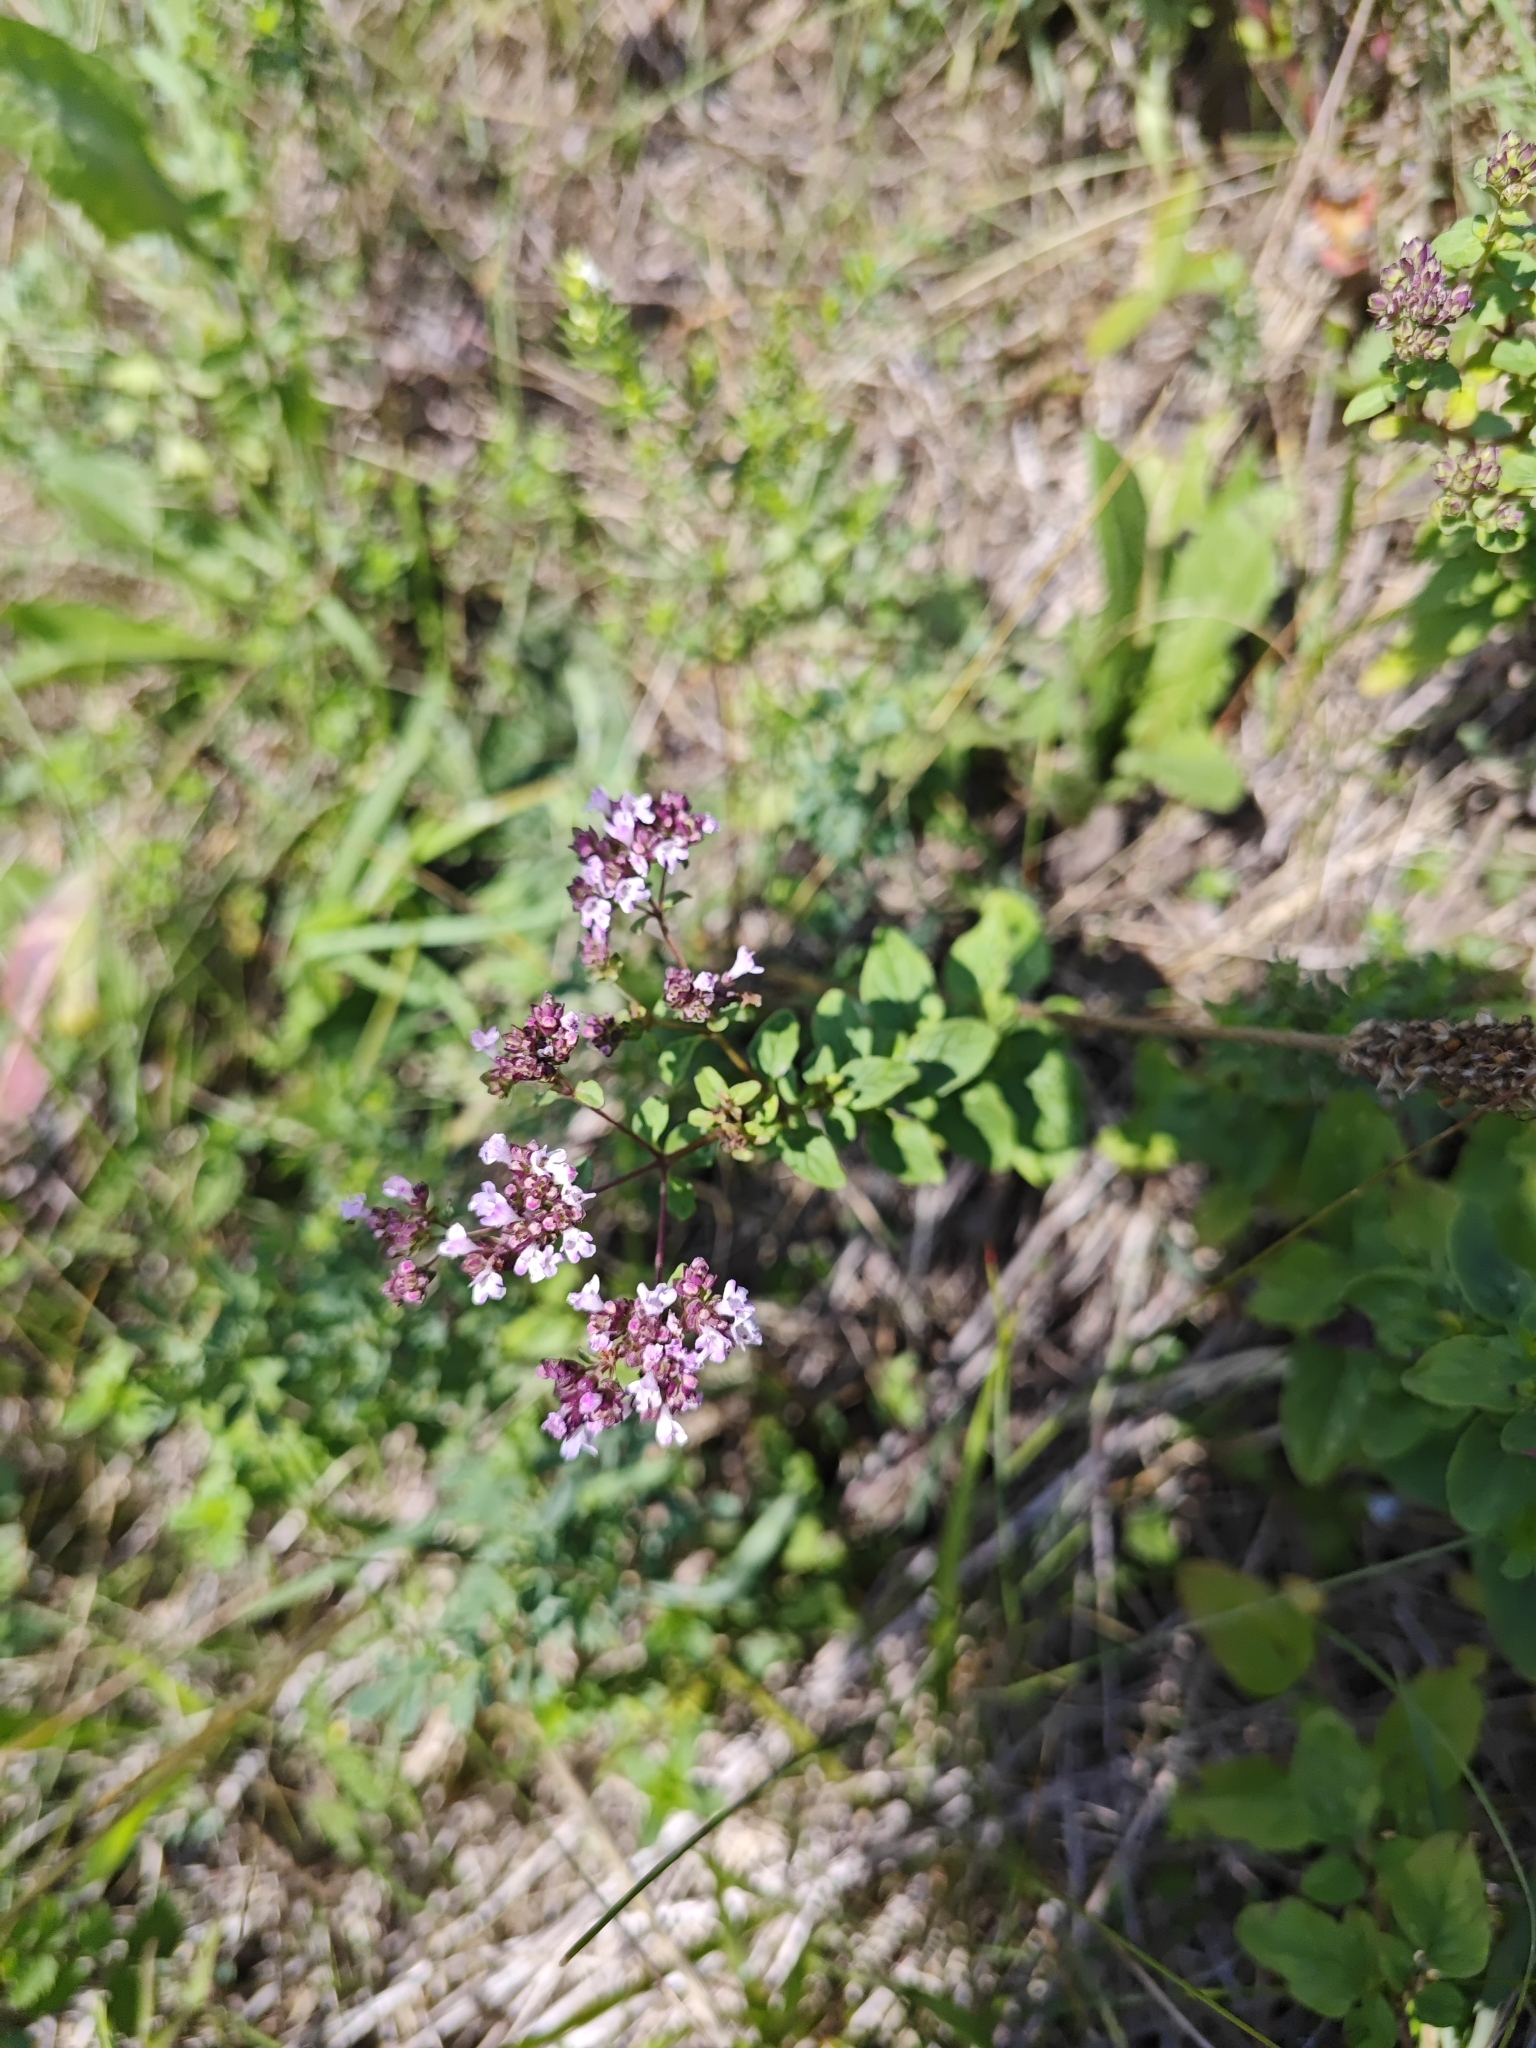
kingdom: Plantae
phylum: Tracheophyta
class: Magnoliopsida
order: Lamiales
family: Lamiaceae
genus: Origanum
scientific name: Origanum vulgare
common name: Wild marjoram
